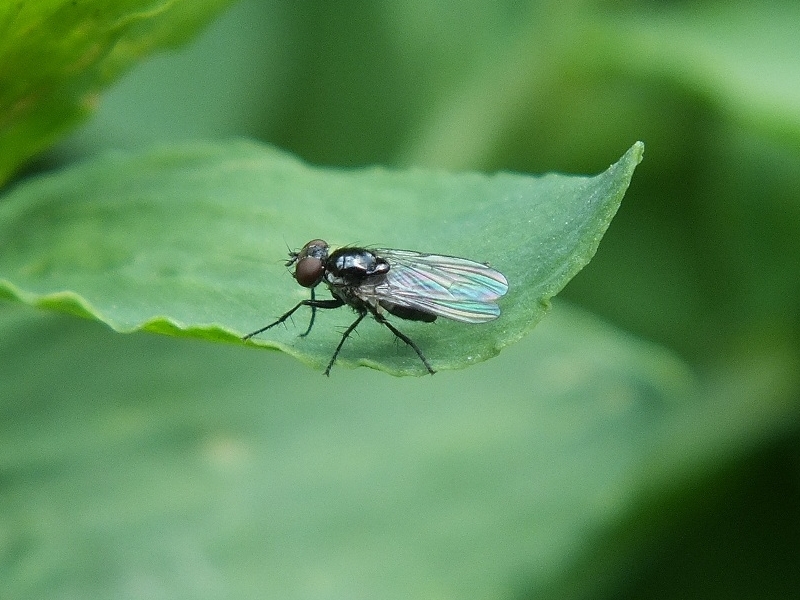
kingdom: Animalia
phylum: Arthropoda
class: Insecta
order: Diptera
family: Muscidae
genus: Coenosia
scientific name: Coenosia atra
